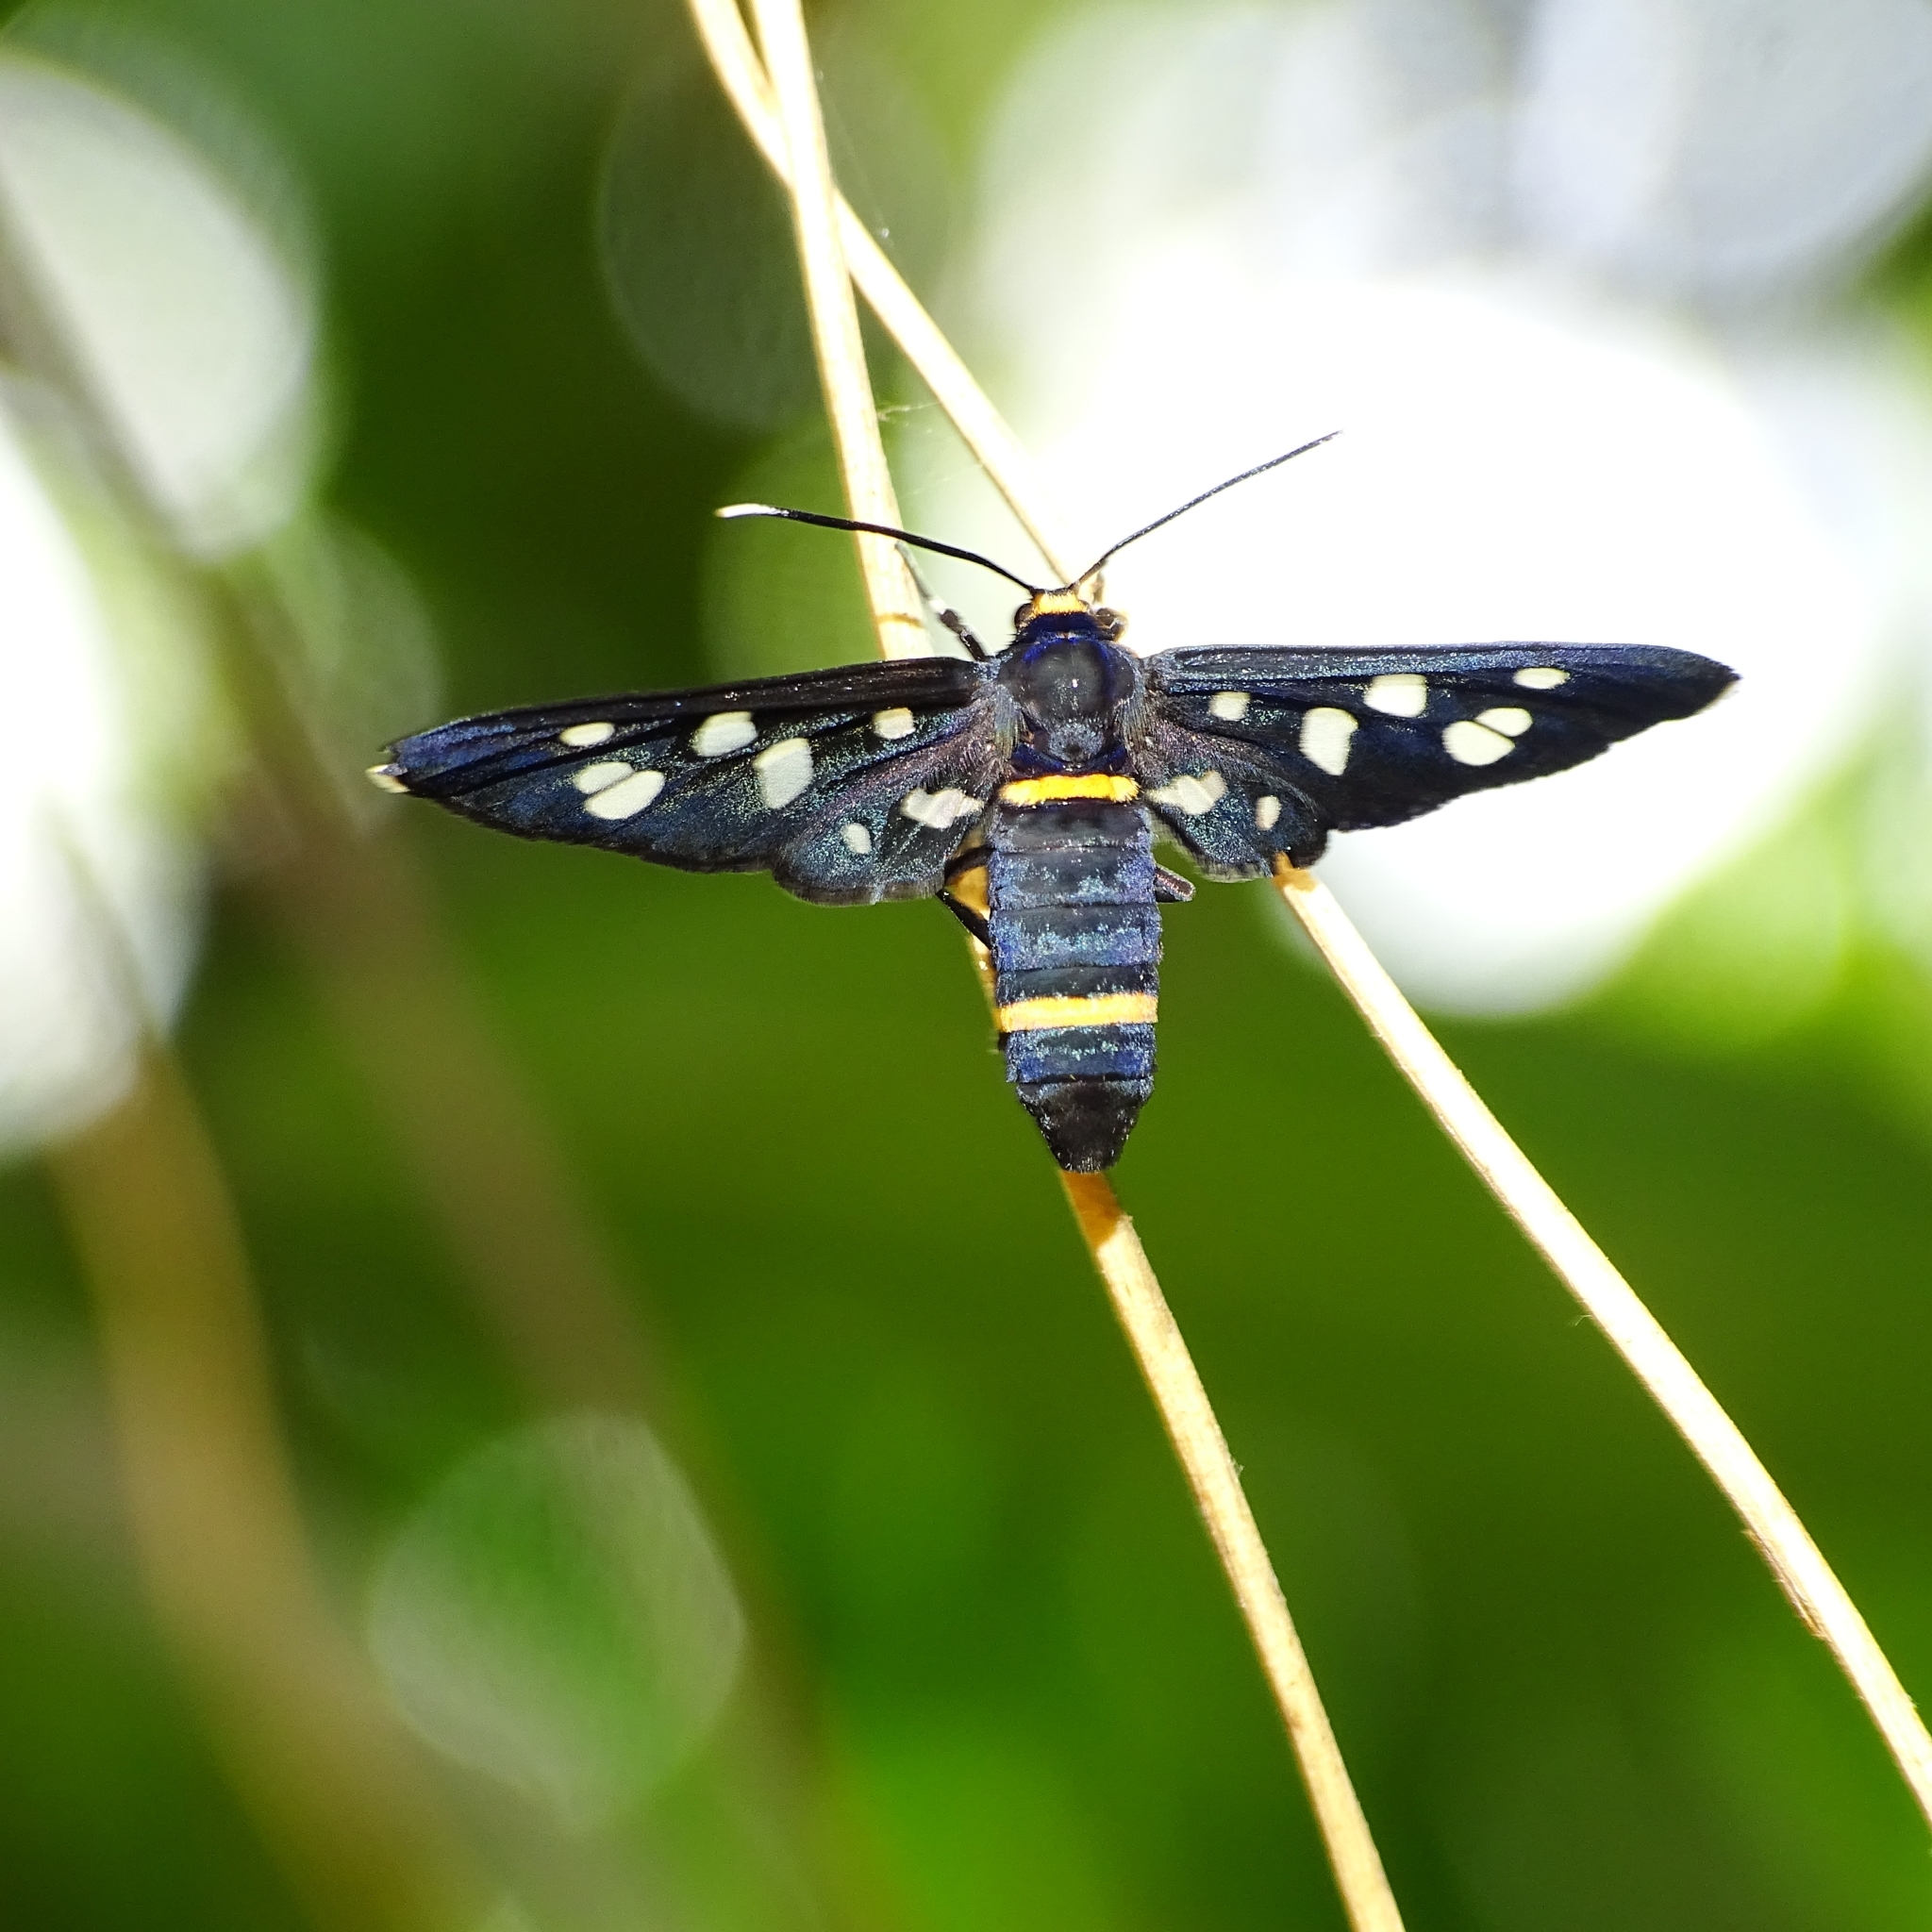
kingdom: Animalia
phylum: Arthropoda
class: Insecta
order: Lepidoptera
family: Erebidae
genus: Amata
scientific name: Amata cyssea
